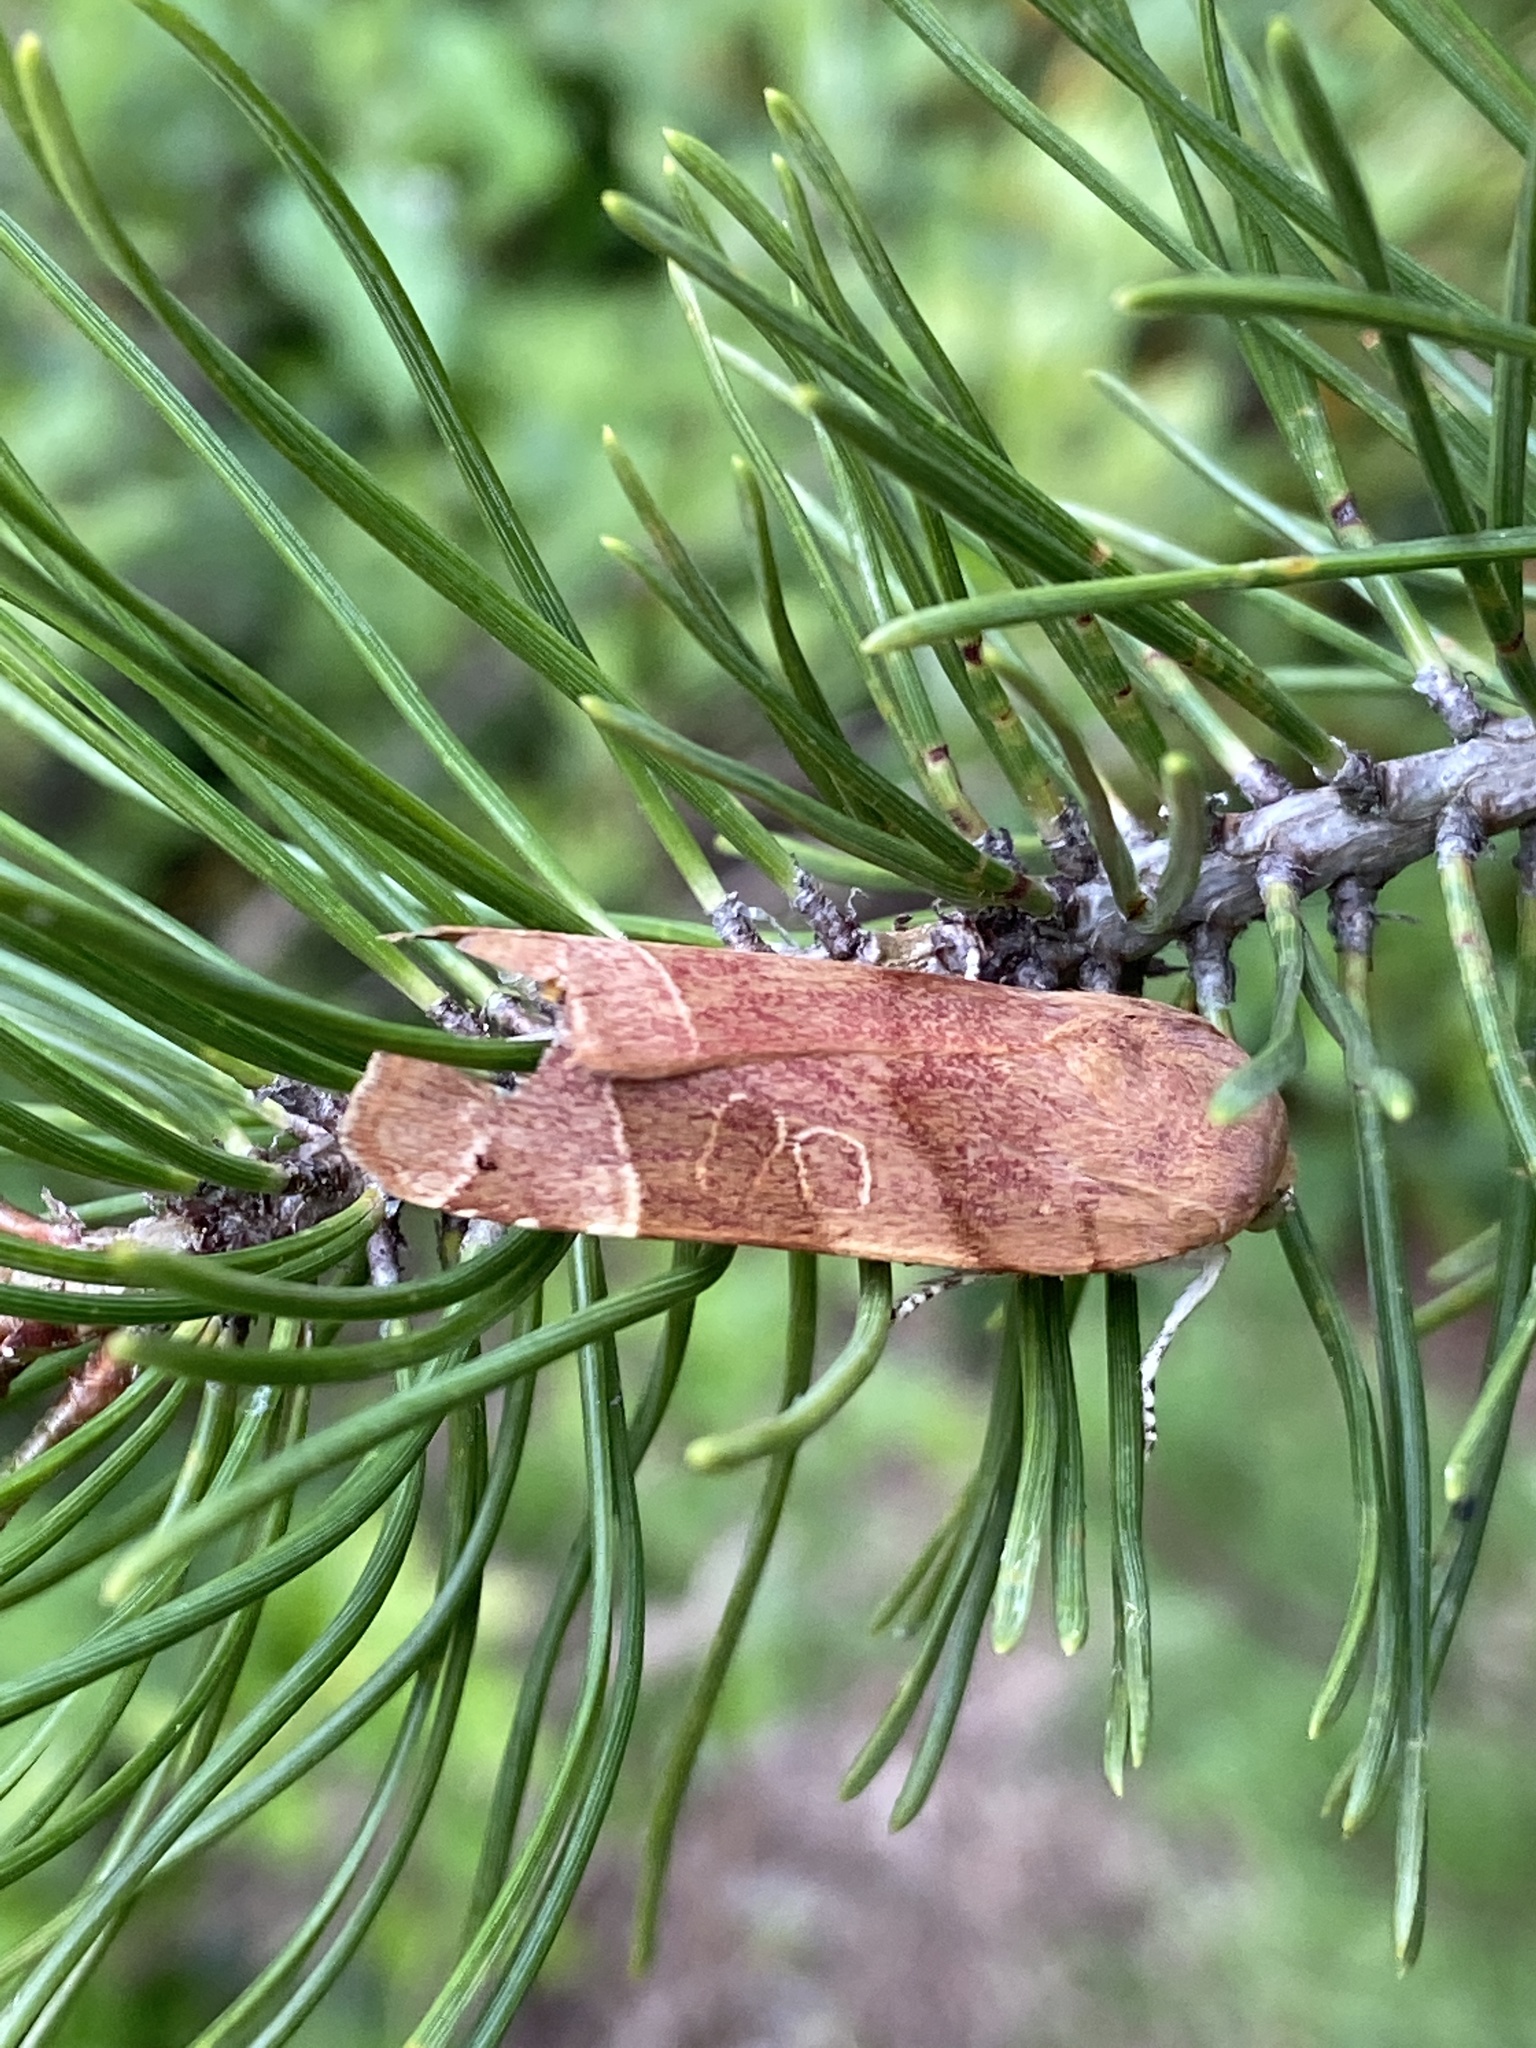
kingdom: Animalia
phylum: Arthropoda
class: Insecta
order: Lepidoptera
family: Noctuidae
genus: Noctua
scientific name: Noctua fimbriata
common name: Broad-bordered yellow underwing
